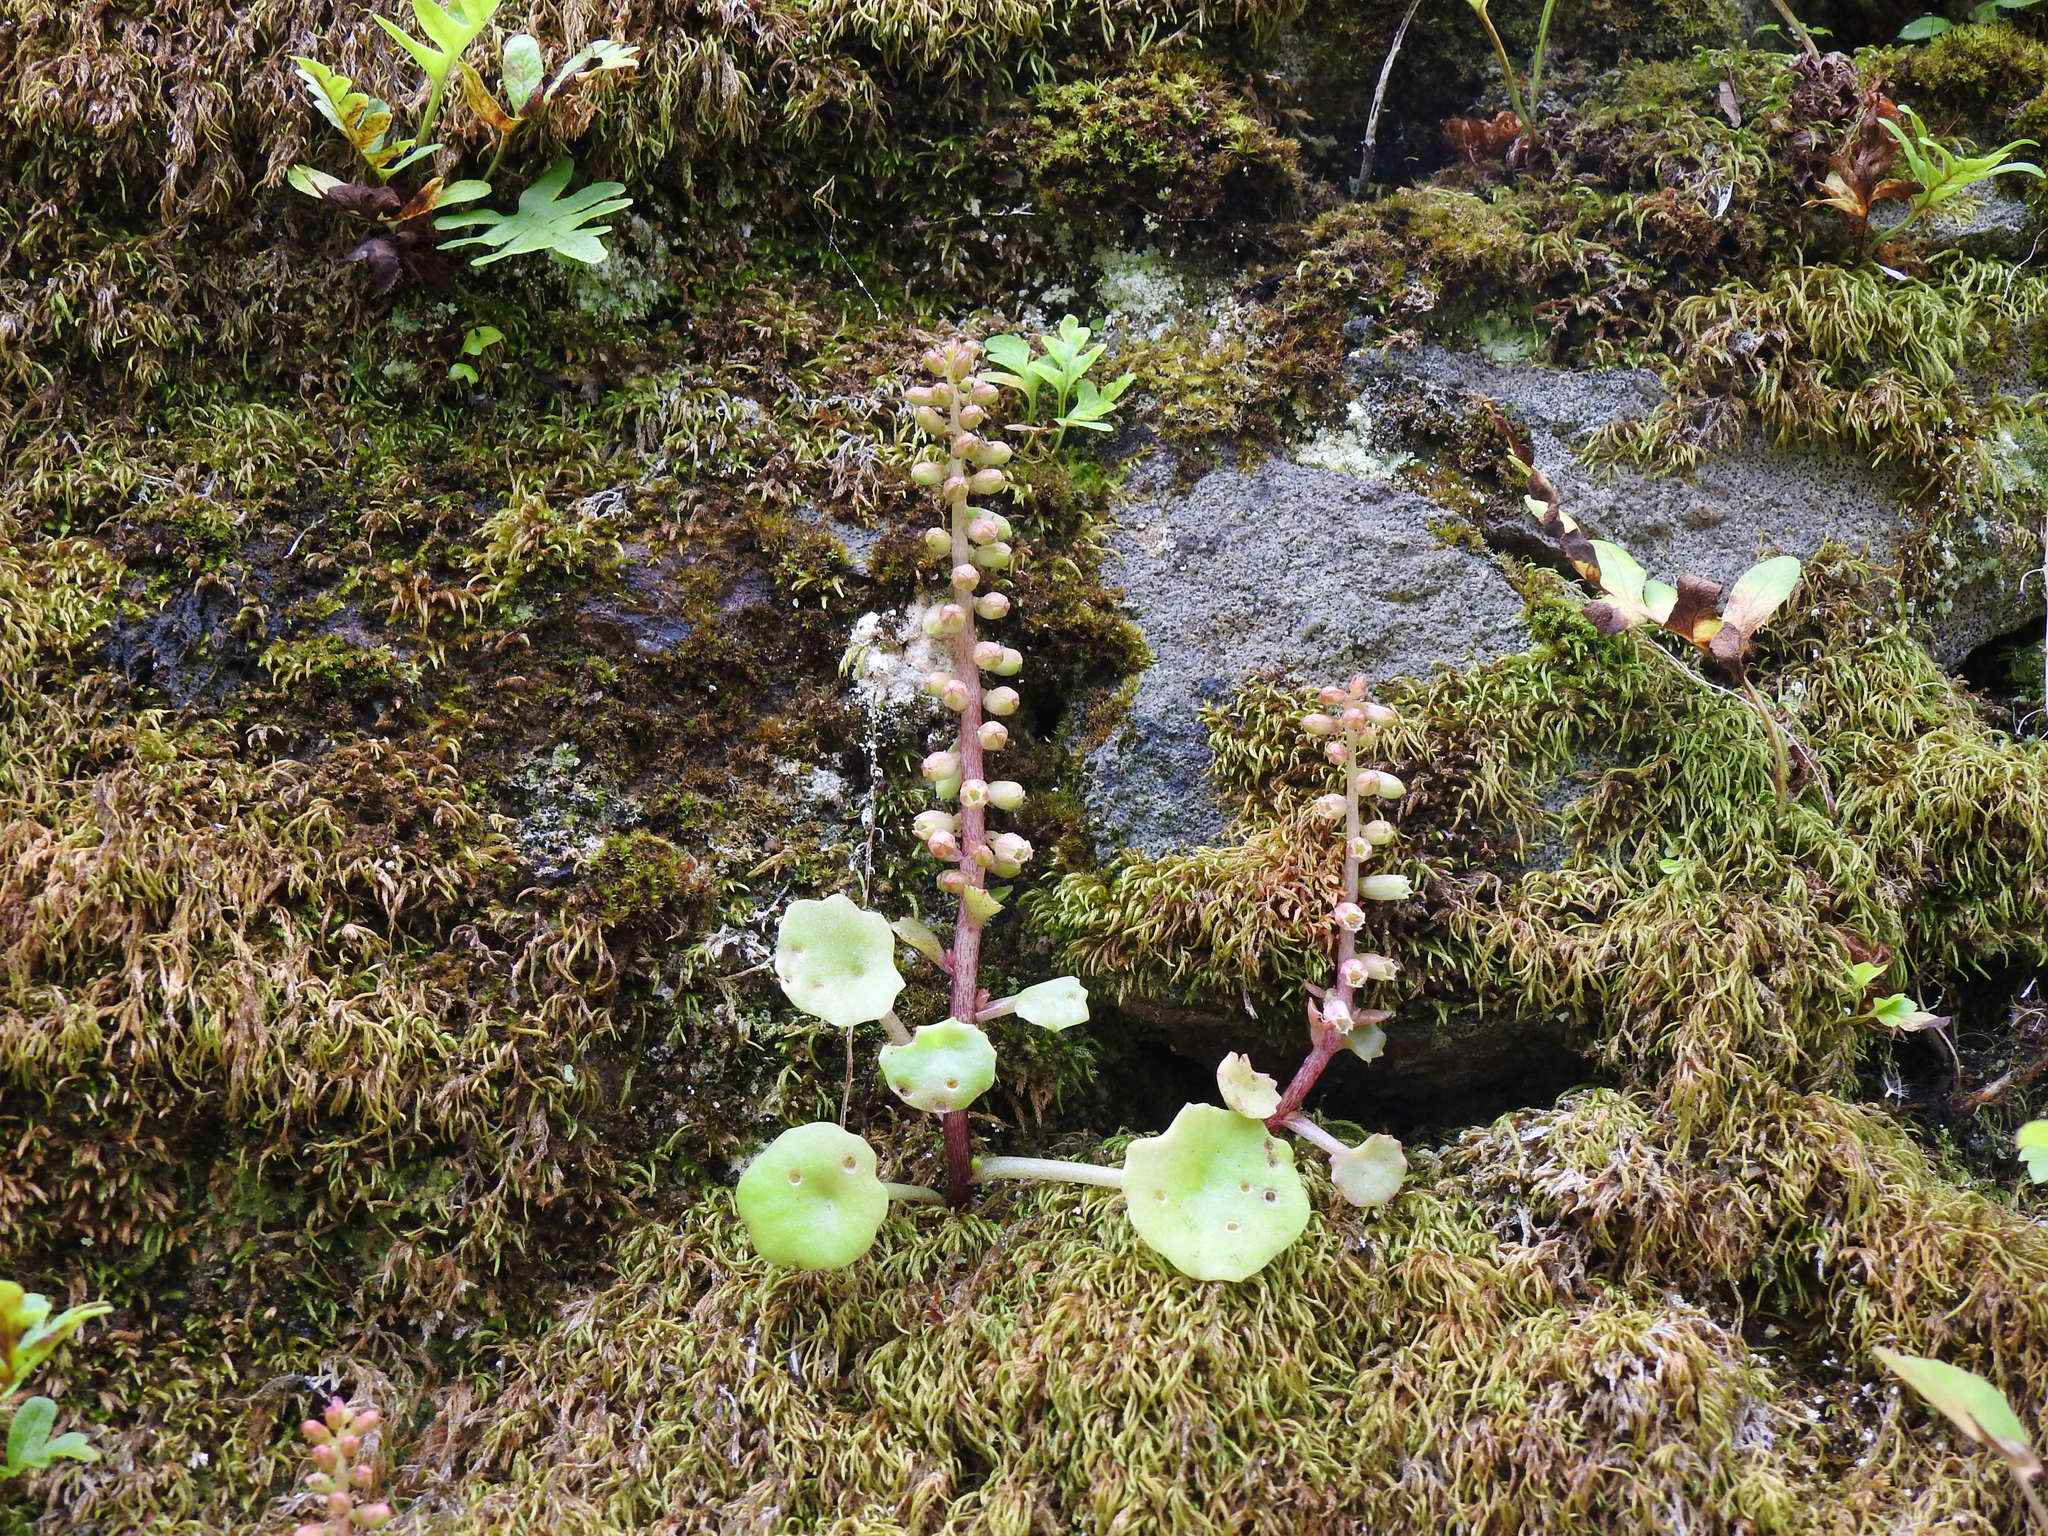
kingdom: Plantae
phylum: Tracheophyta
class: Magnoliopsida
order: Saxifragales
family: Crassulaceae
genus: Umbilicus
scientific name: Umbilicus rupestris
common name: Navelwort
